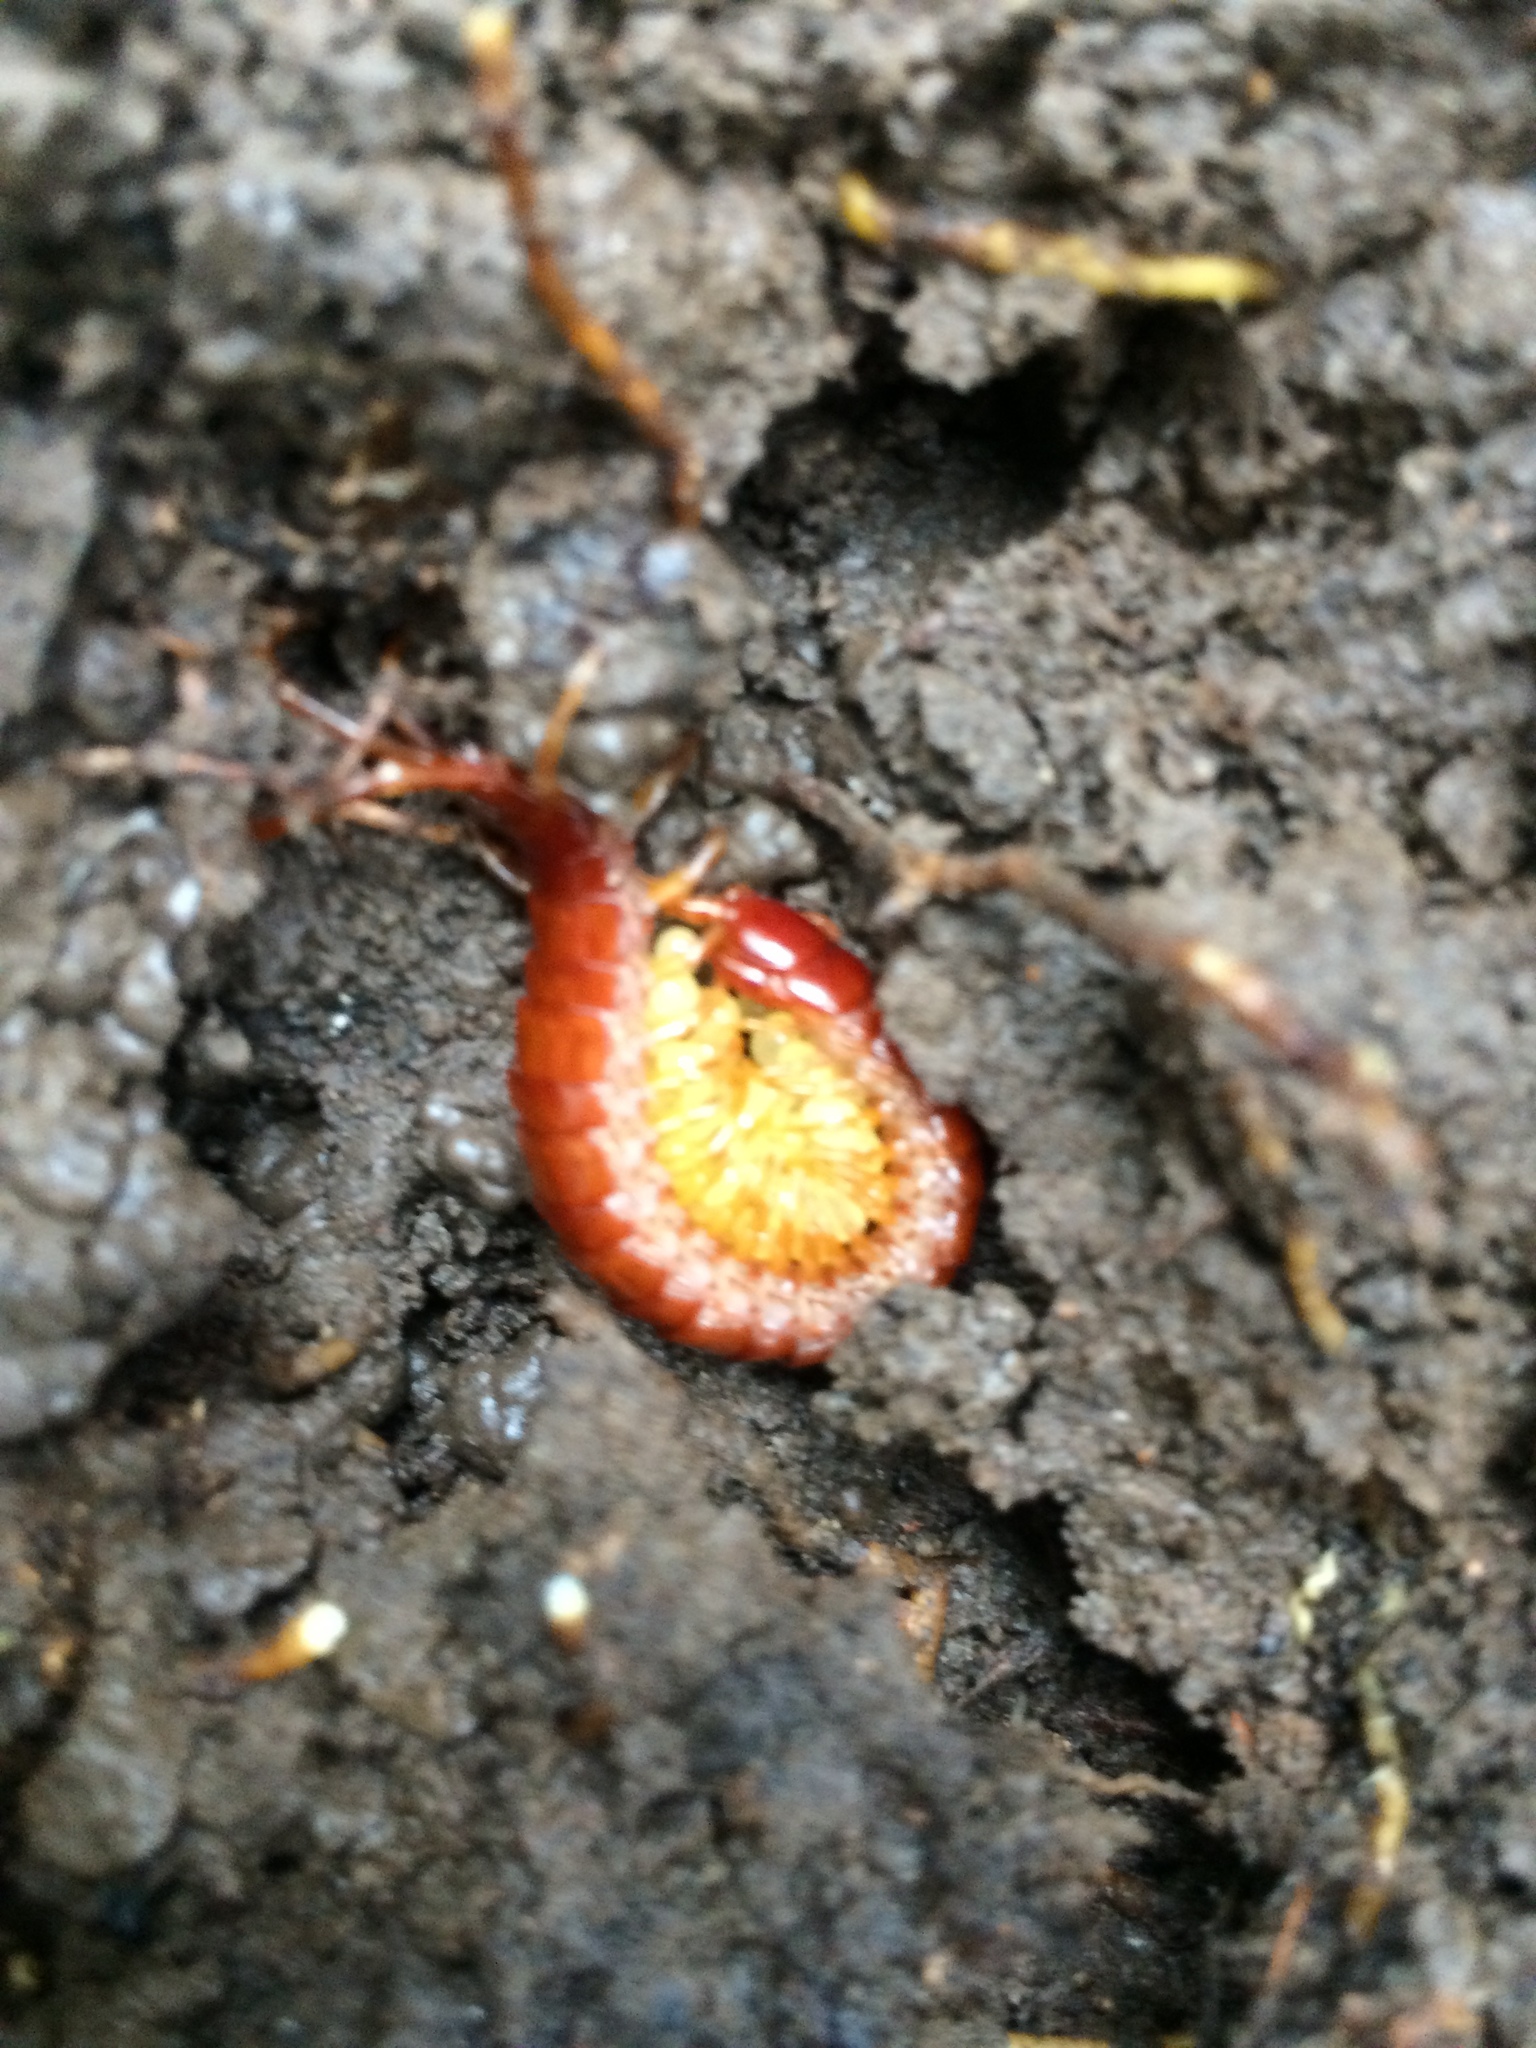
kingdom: Animalia
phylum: Arthropoda
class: Chilopoda
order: Scolopendromorpha
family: Scolopocryptopidae
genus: Scolopocryptops
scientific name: Scolopocryptops spinicaudus
